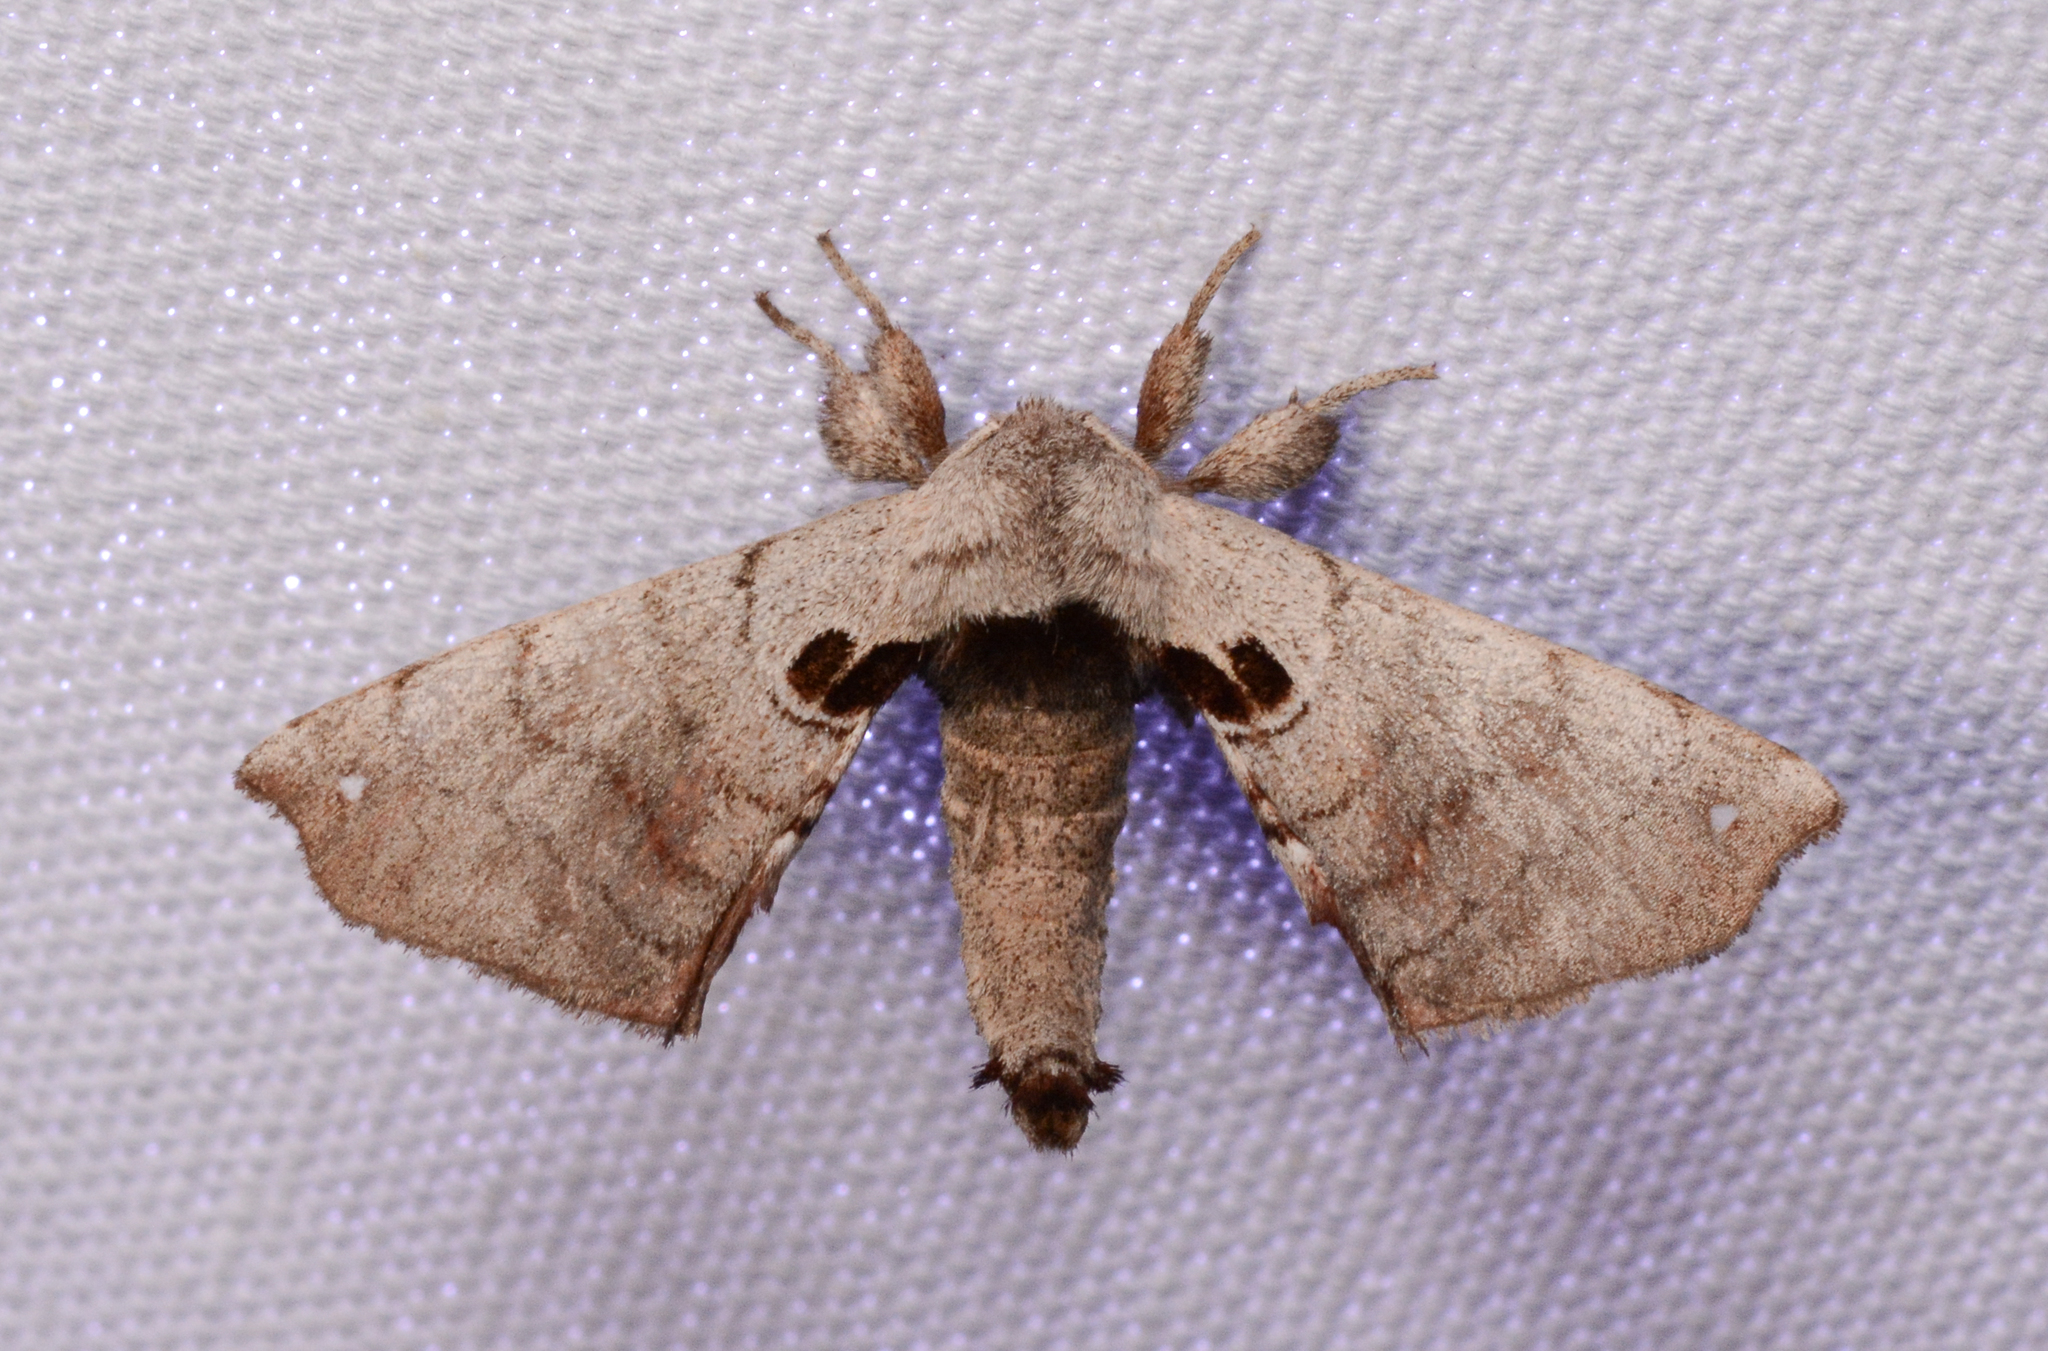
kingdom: Animalia
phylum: Arthropoda
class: Insecta
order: Lepidoptera
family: Apatelodidae
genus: Hygrochroa
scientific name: Hygrochroa Apatelodes torrefacta
